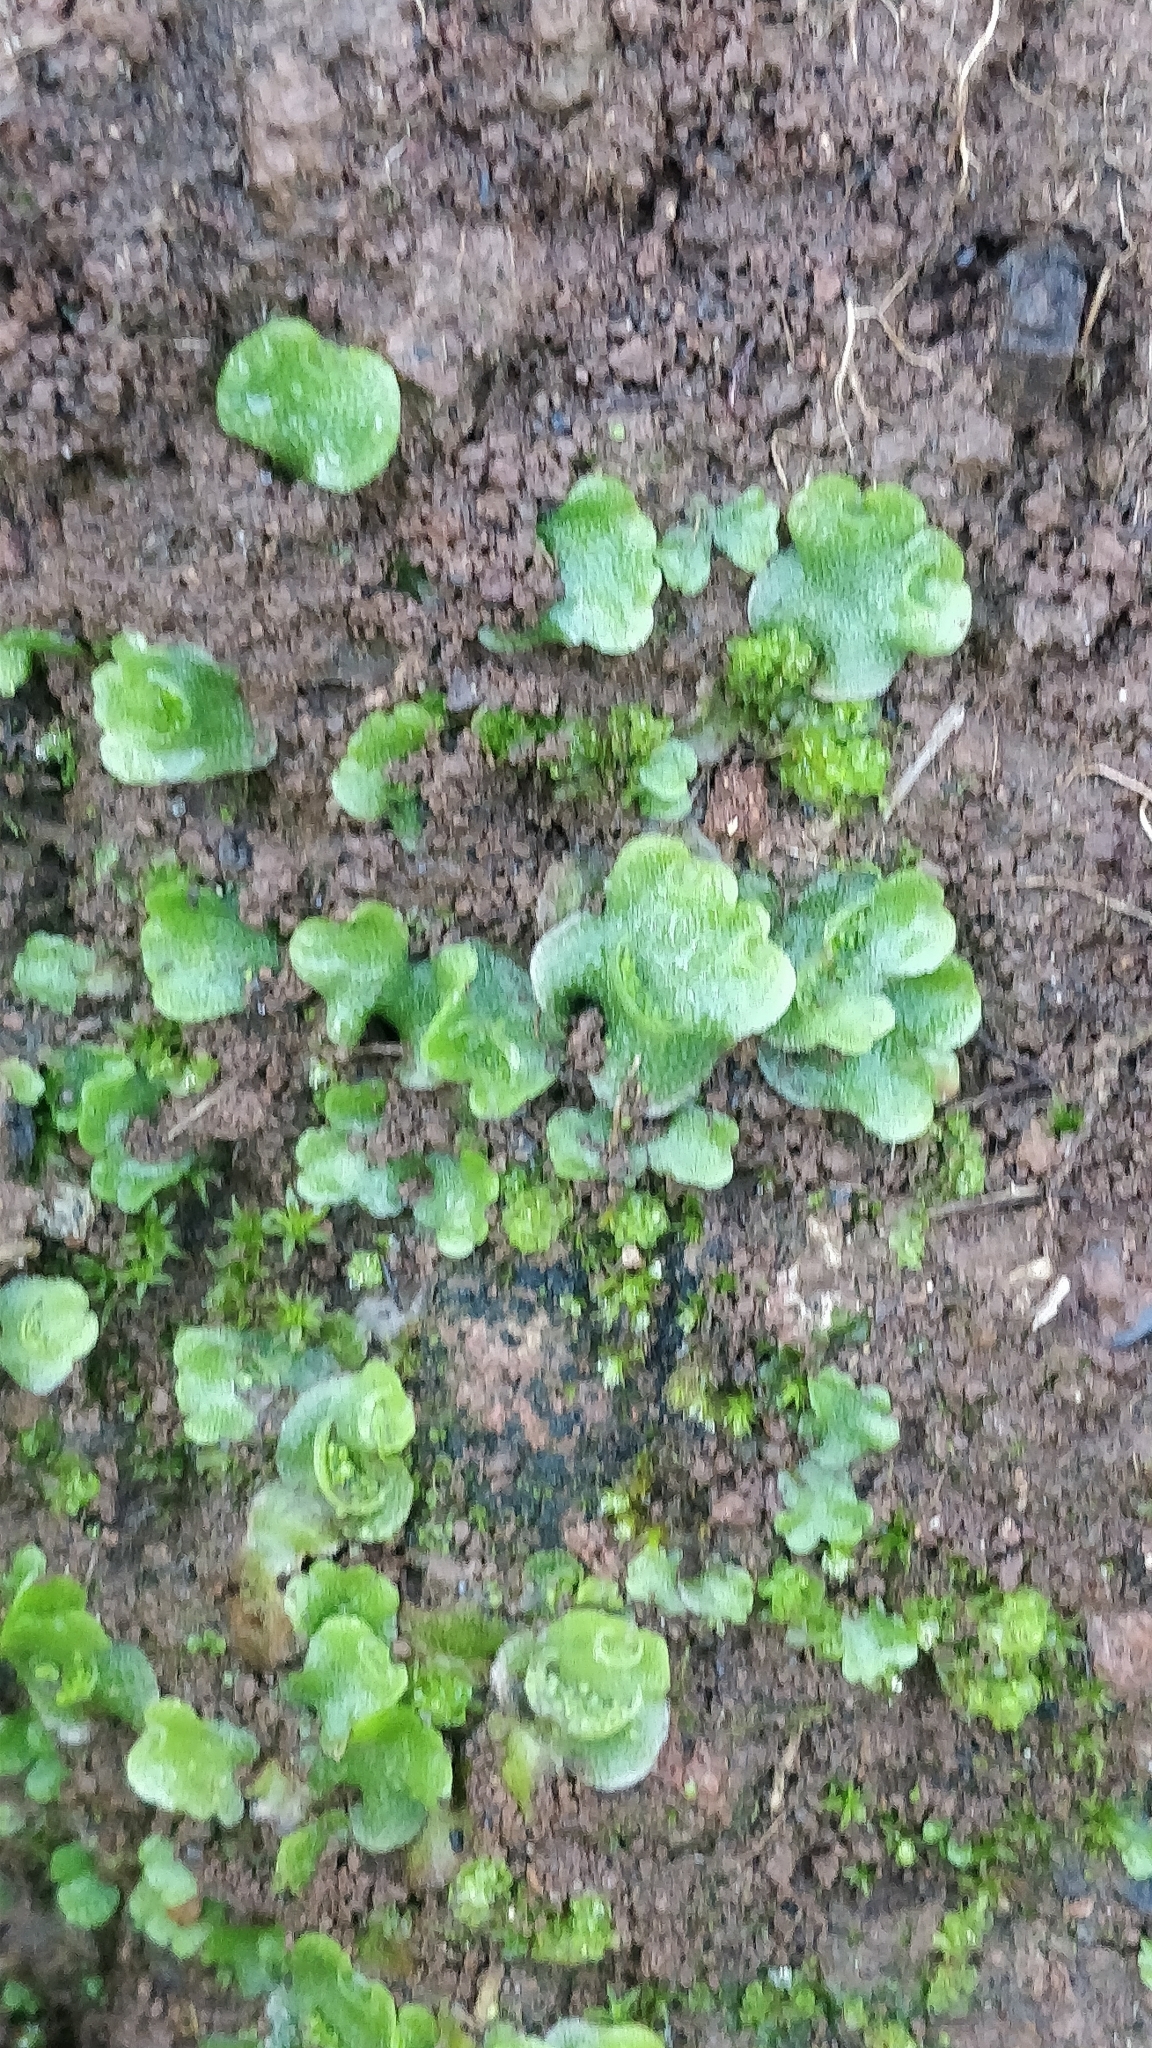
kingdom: Plantae
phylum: Marchantiophyta
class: Marchantiopsida
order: Lunulariales
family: Lunulariaceae
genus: Lunularia
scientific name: Lunularia cruciata
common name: Crescent-cup liverwort
